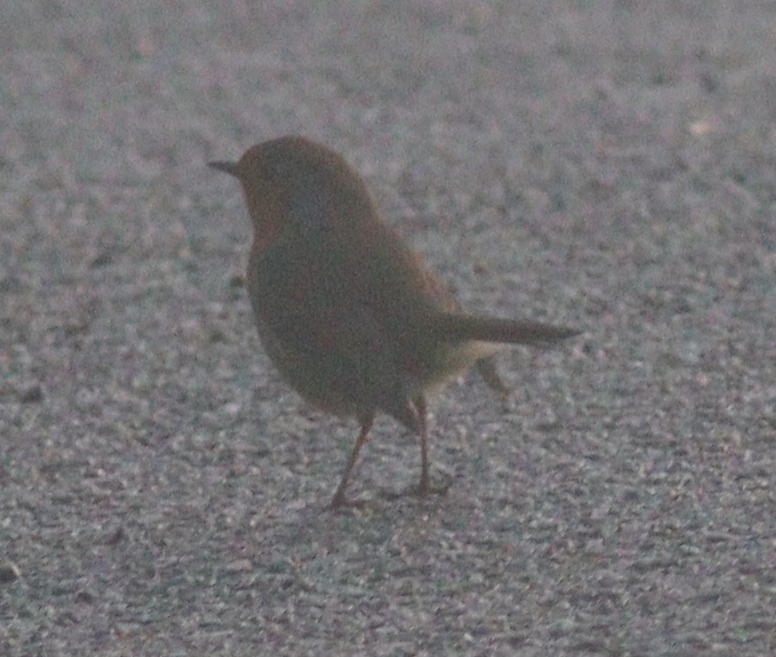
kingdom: Animalia
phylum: Chordata
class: Aves
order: Passeriformes
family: Muscicapidae
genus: Erithacus
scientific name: Erithacus rubecula
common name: European robin
